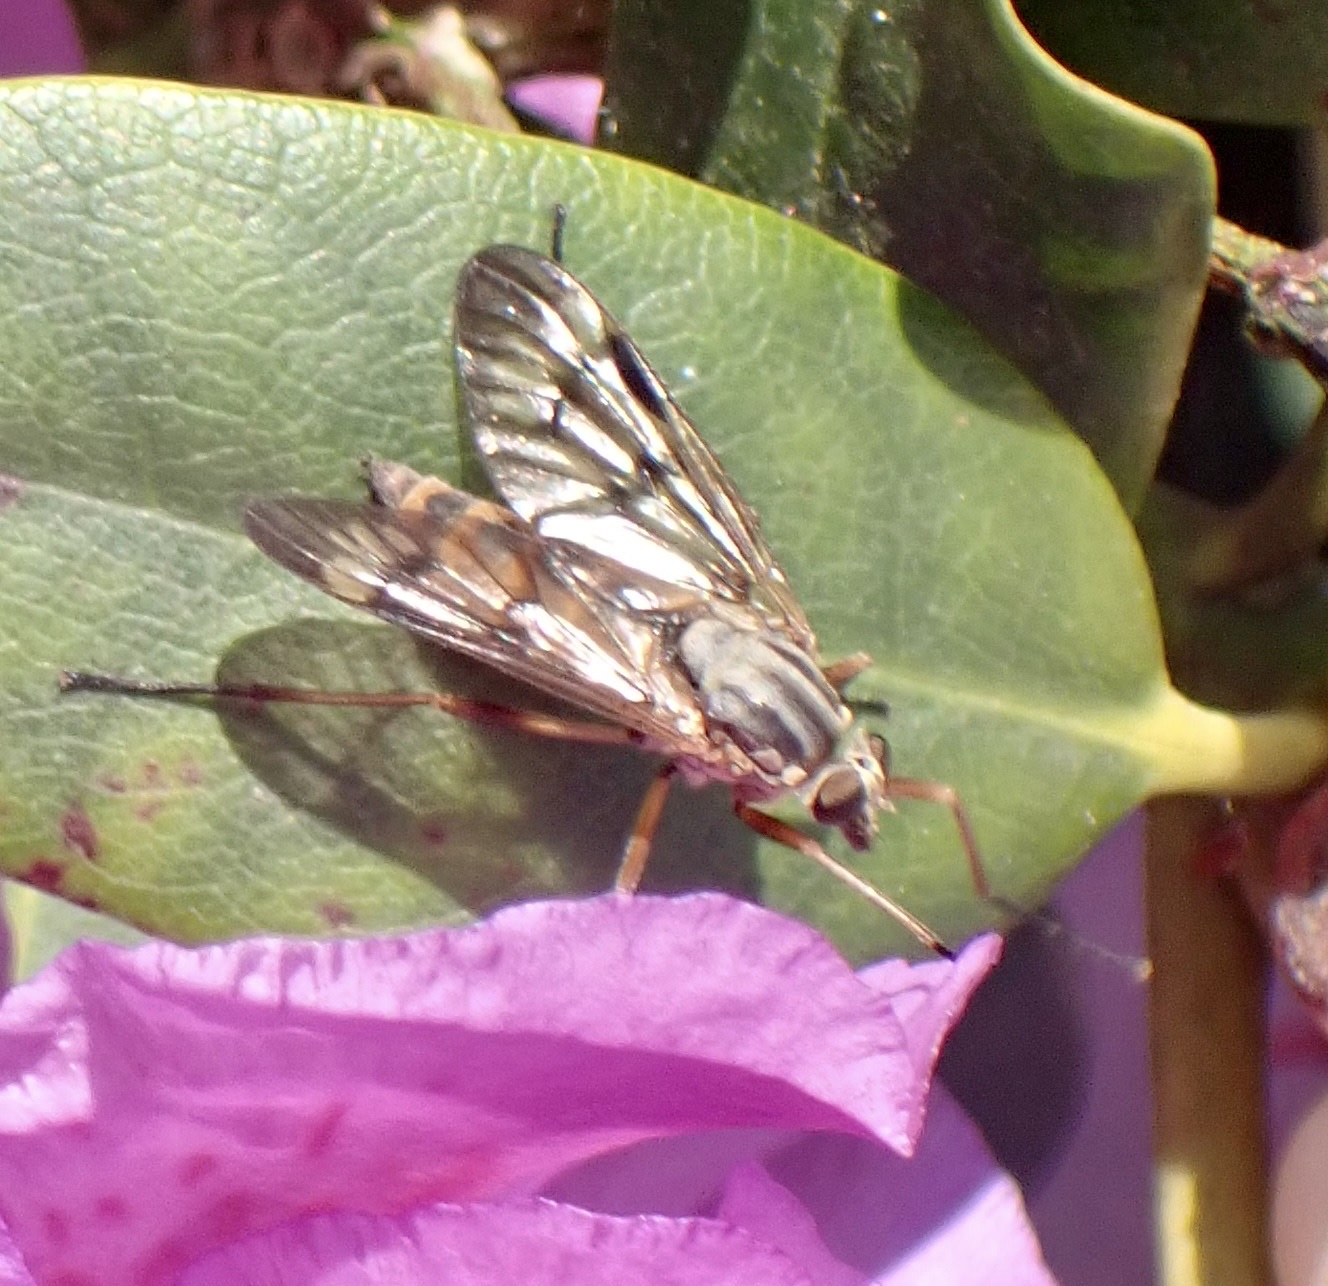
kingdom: Animalia
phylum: Arthropoda
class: Insecta
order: Diptera
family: Rhagionidae
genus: Rhagio
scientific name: Rhagio scolopacea
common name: Downlooker snipefly
